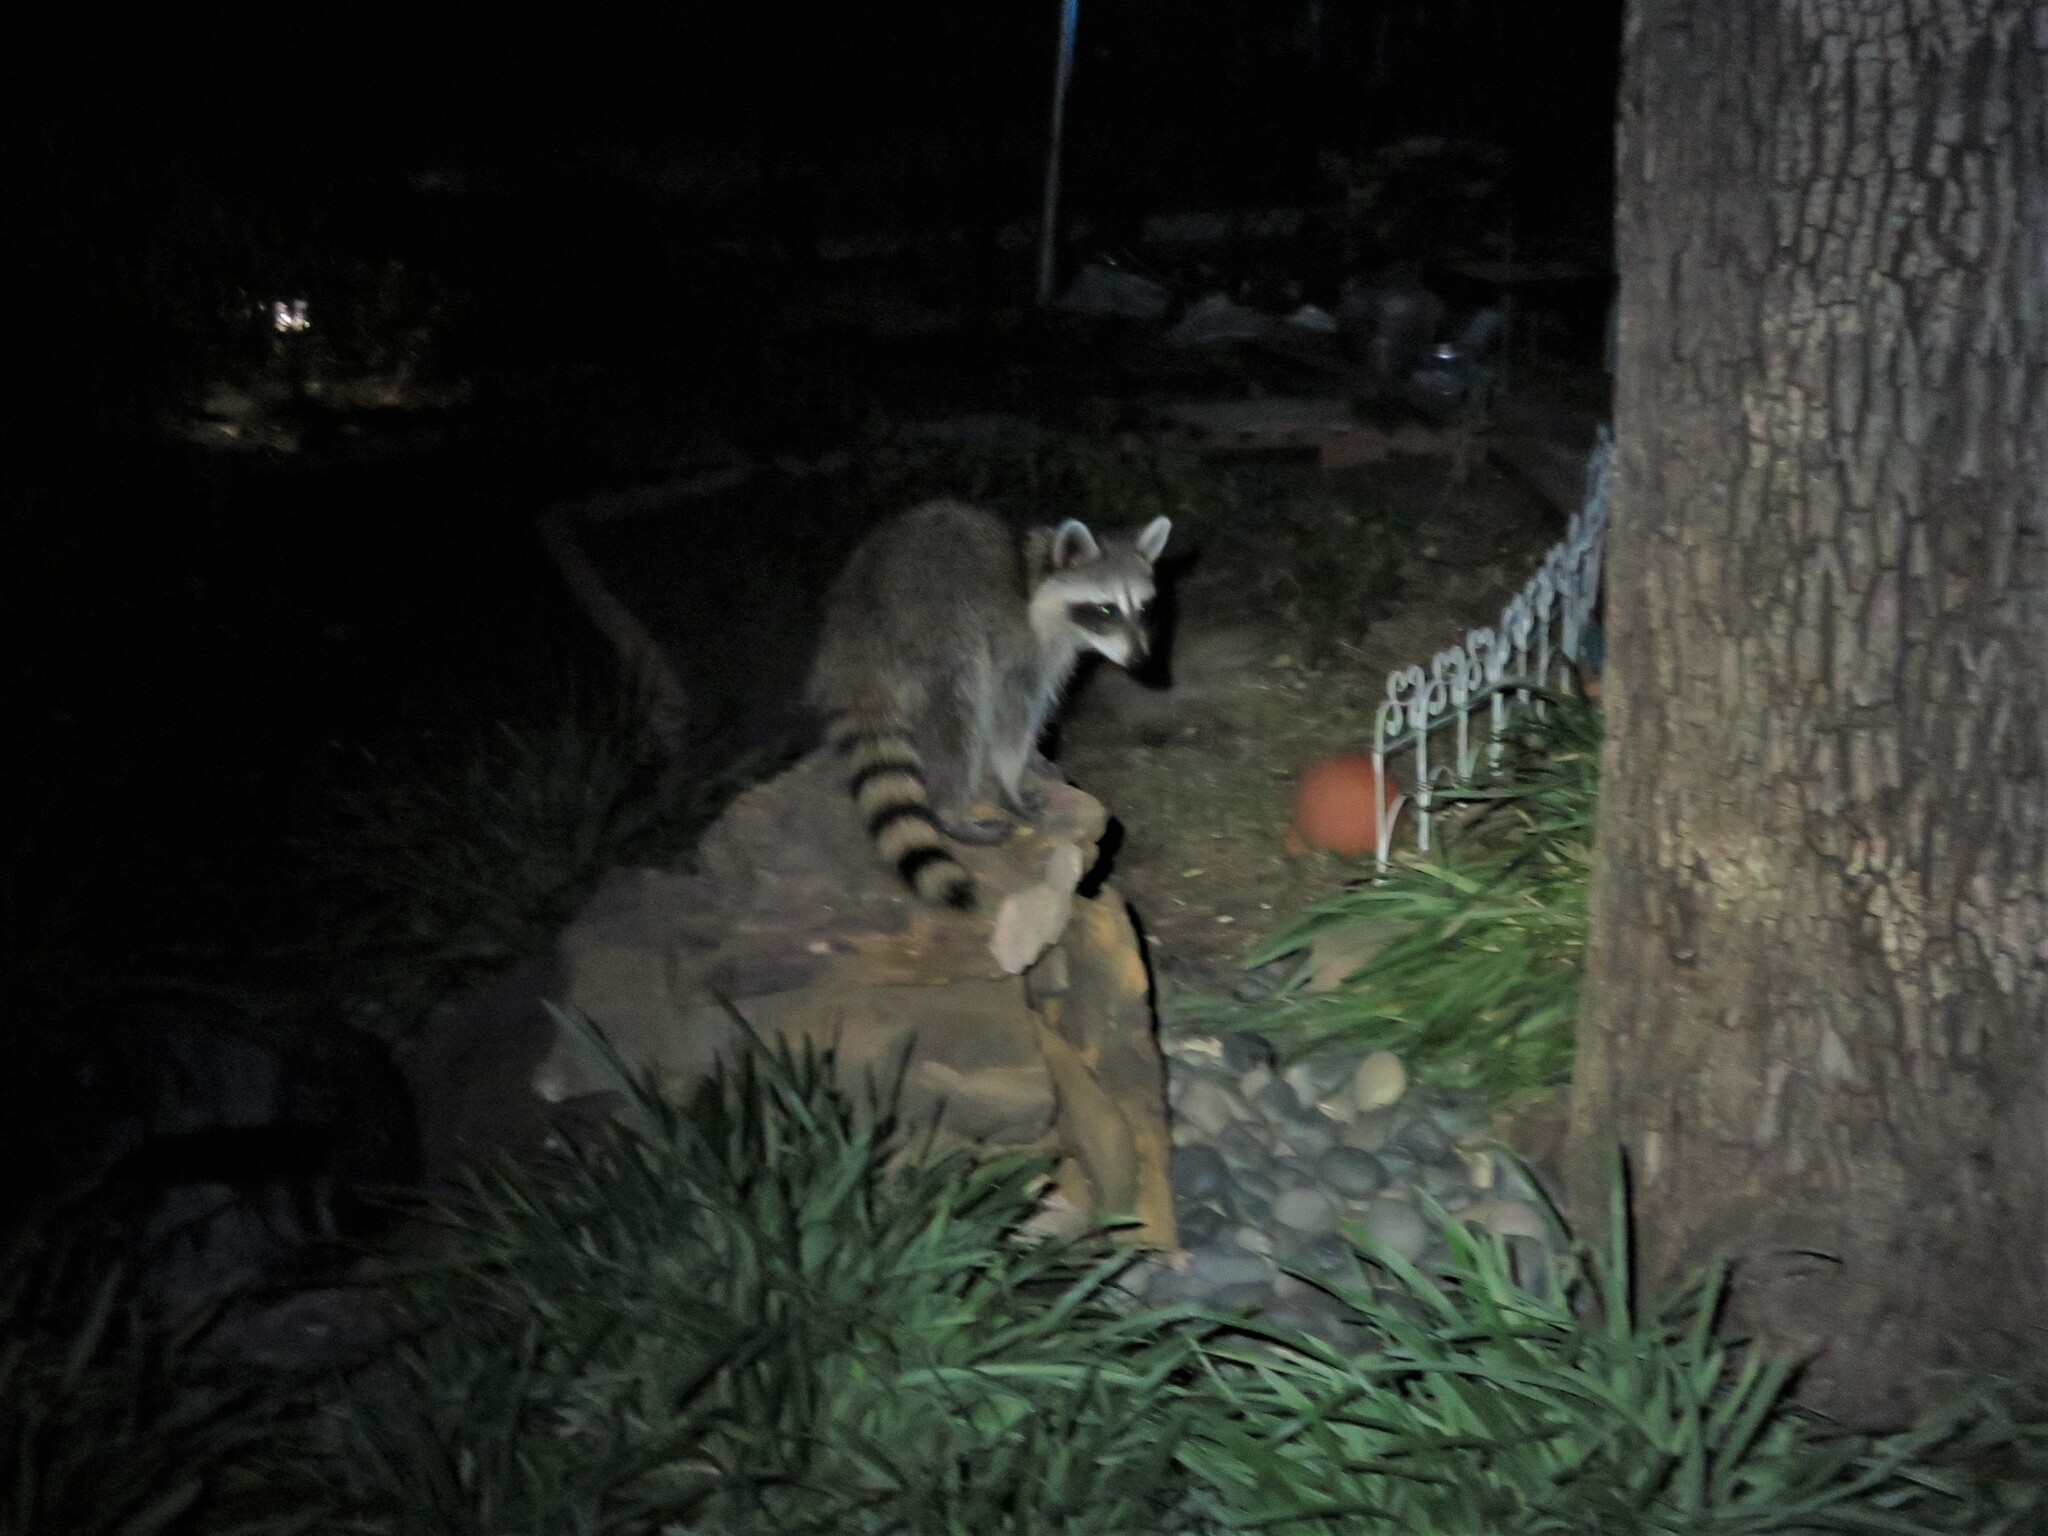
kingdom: Animalia
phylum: Chordata
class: Mammalia
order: Carnivora
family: Procyonidae
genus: Procyon
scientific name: Procyon lotor
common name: Raccoon
